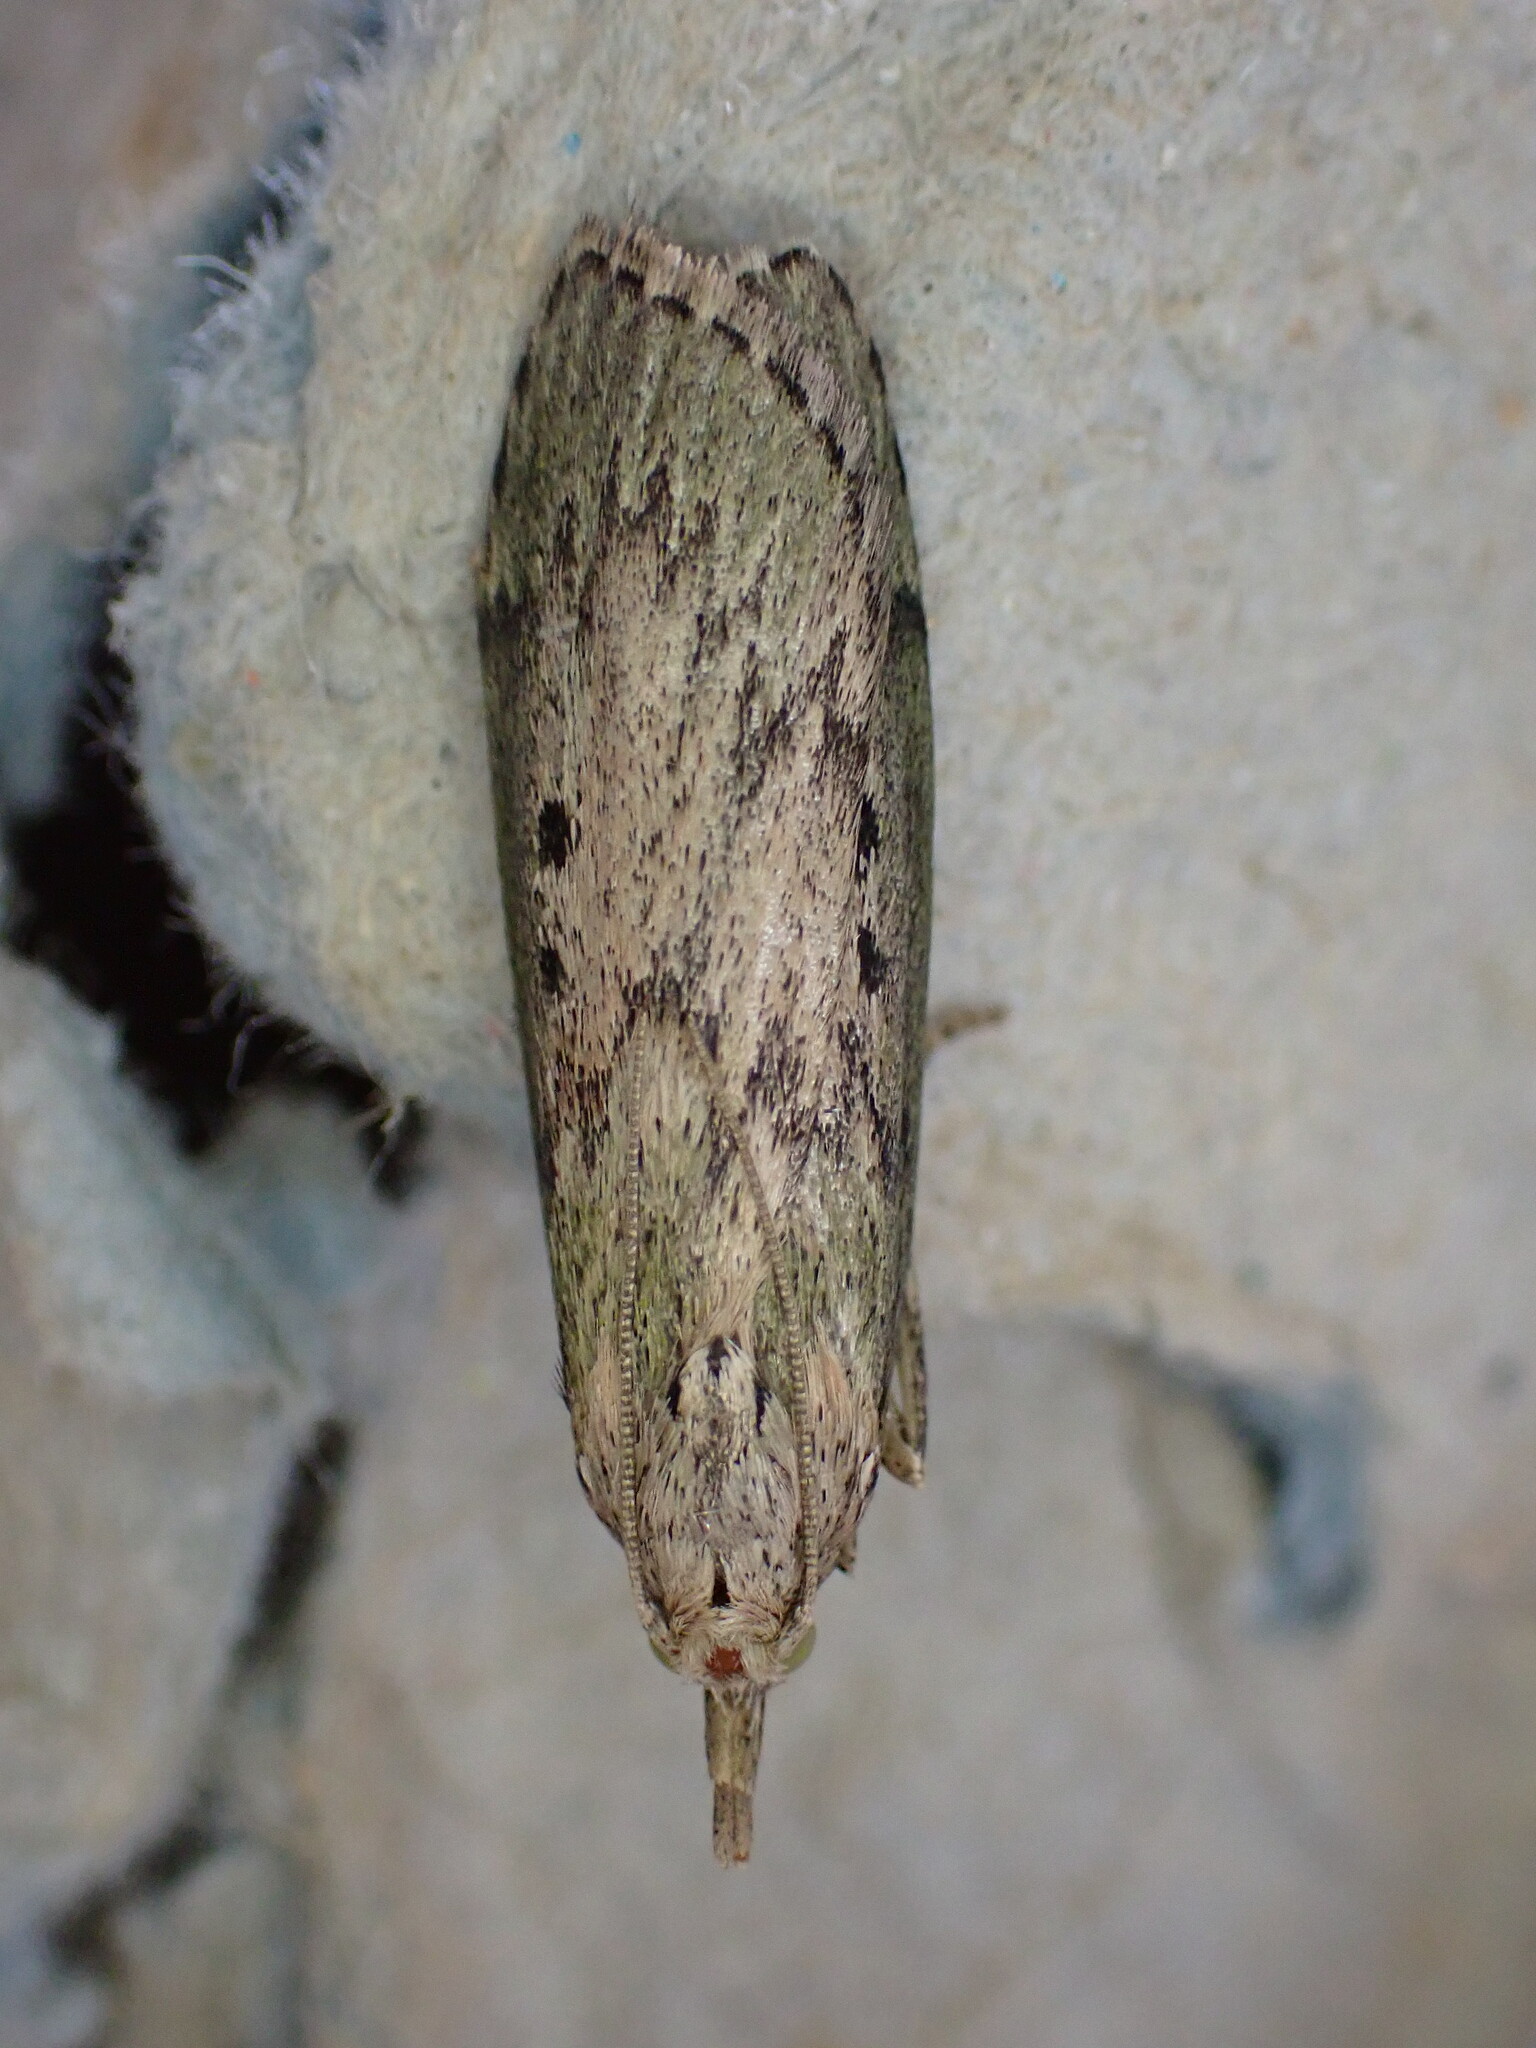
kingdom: Animalia
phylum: Arthropoda
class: Insecta
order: Lepidoptera
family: Pyralidae
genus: Aphomia
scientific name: Aphomia sociella
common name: Bee moth
